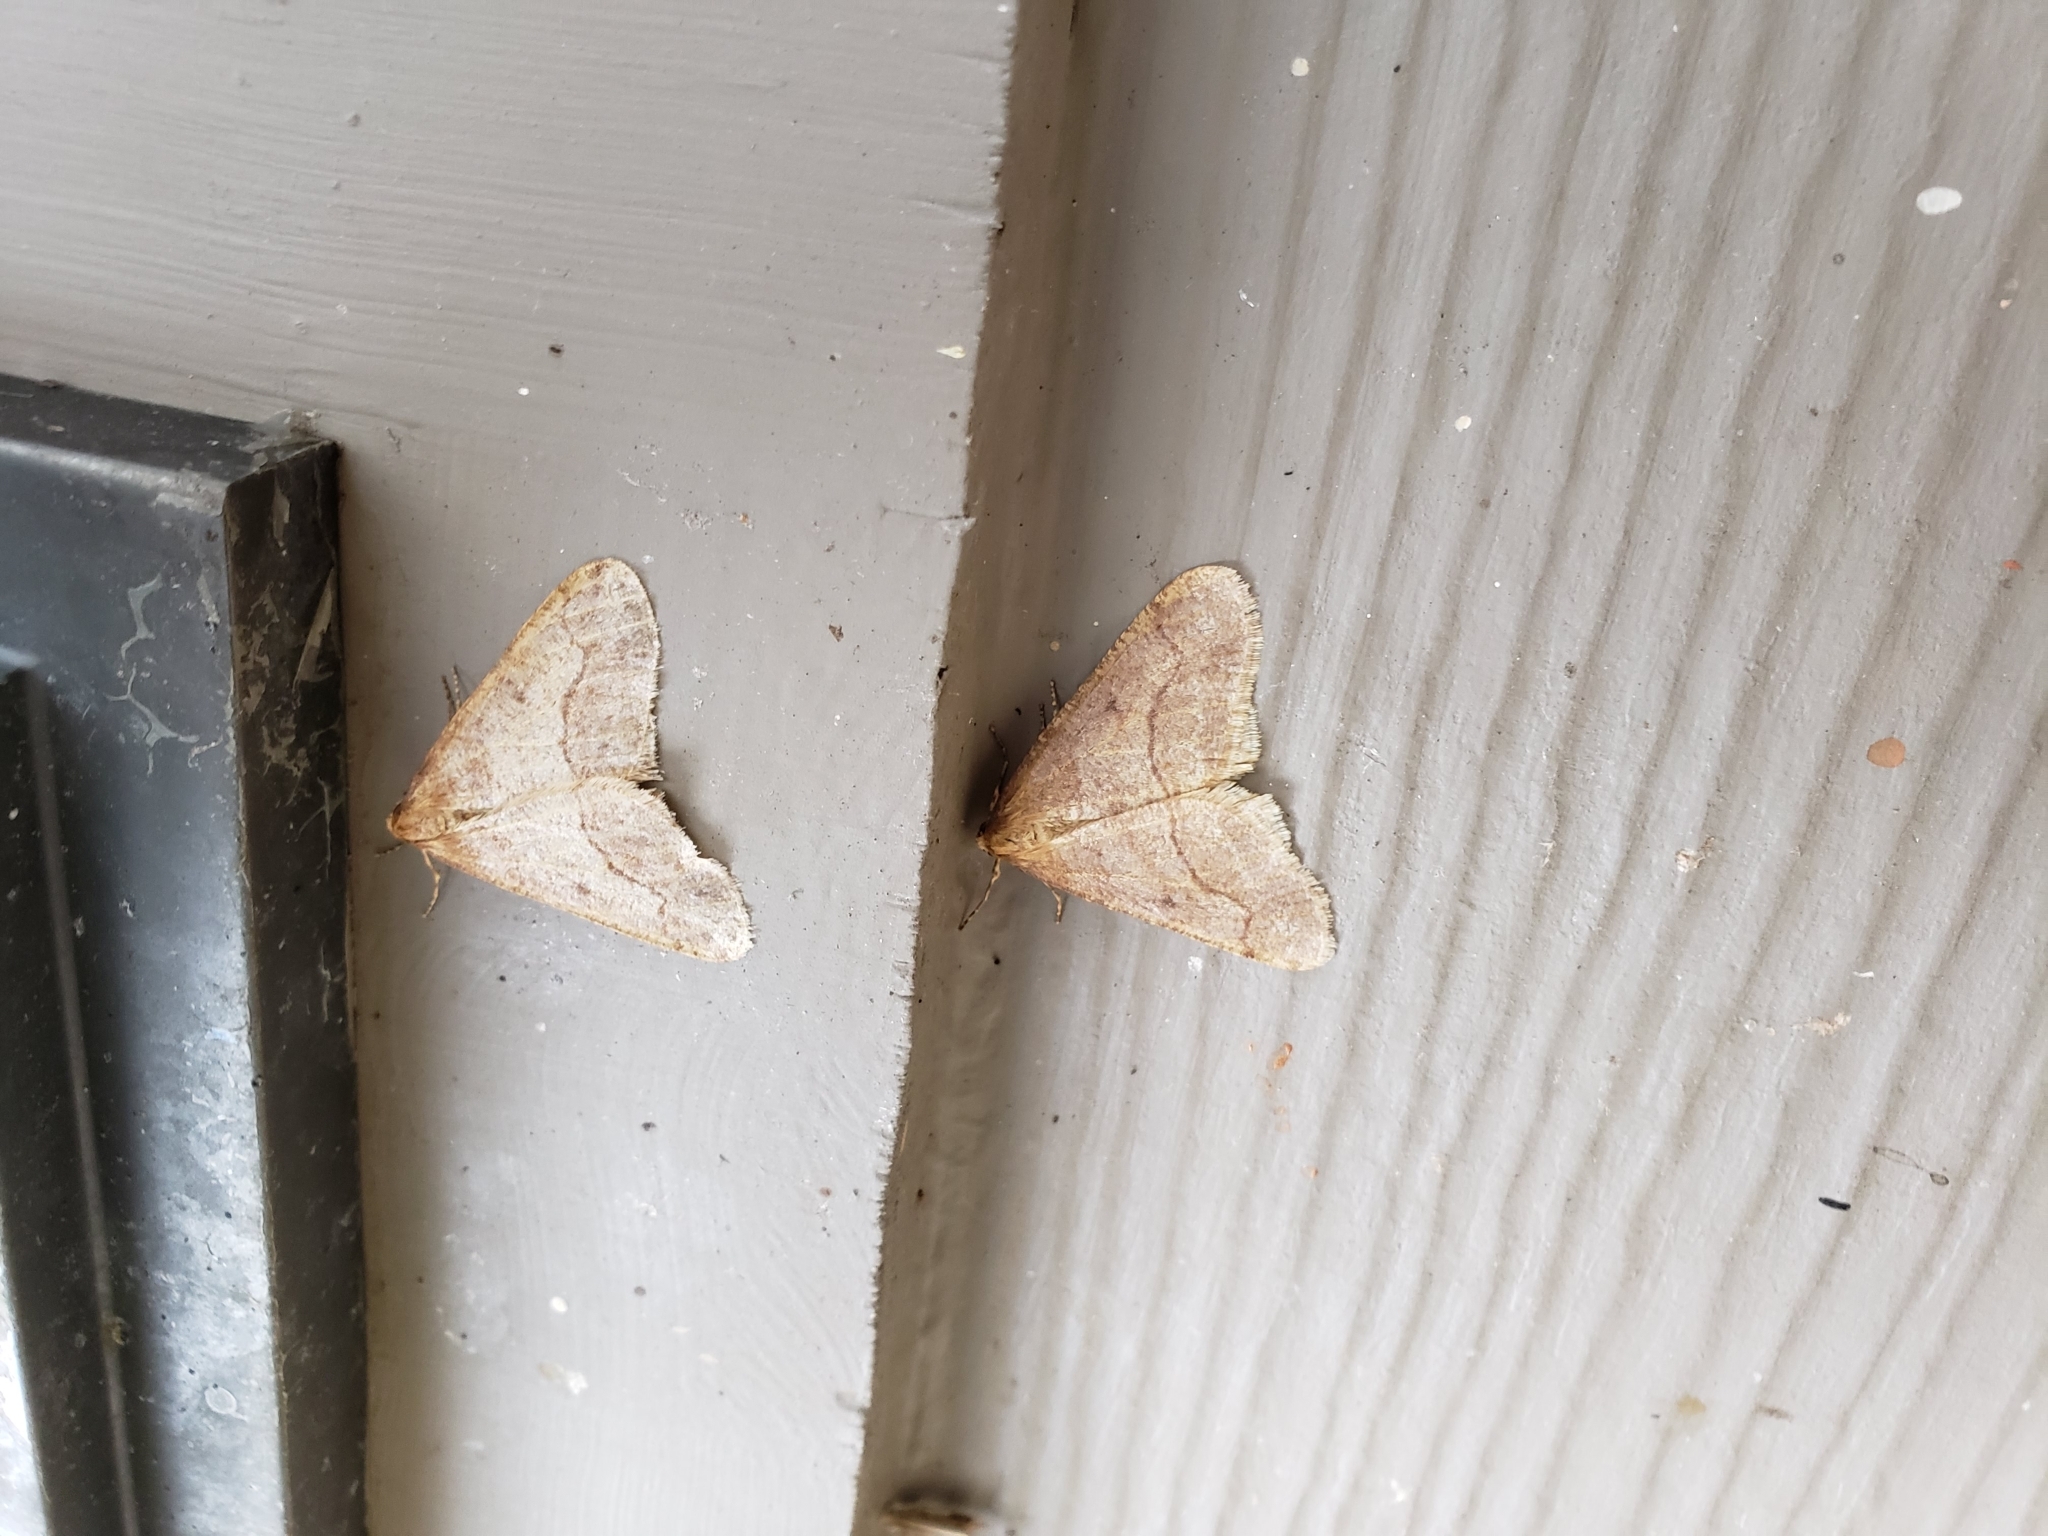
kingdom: Animalia
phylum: Arthropoda
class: Insecta
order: Lepidoptera
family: Geometridae
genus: Erannis
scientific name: Erannis tiliaria
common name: Linden looper
